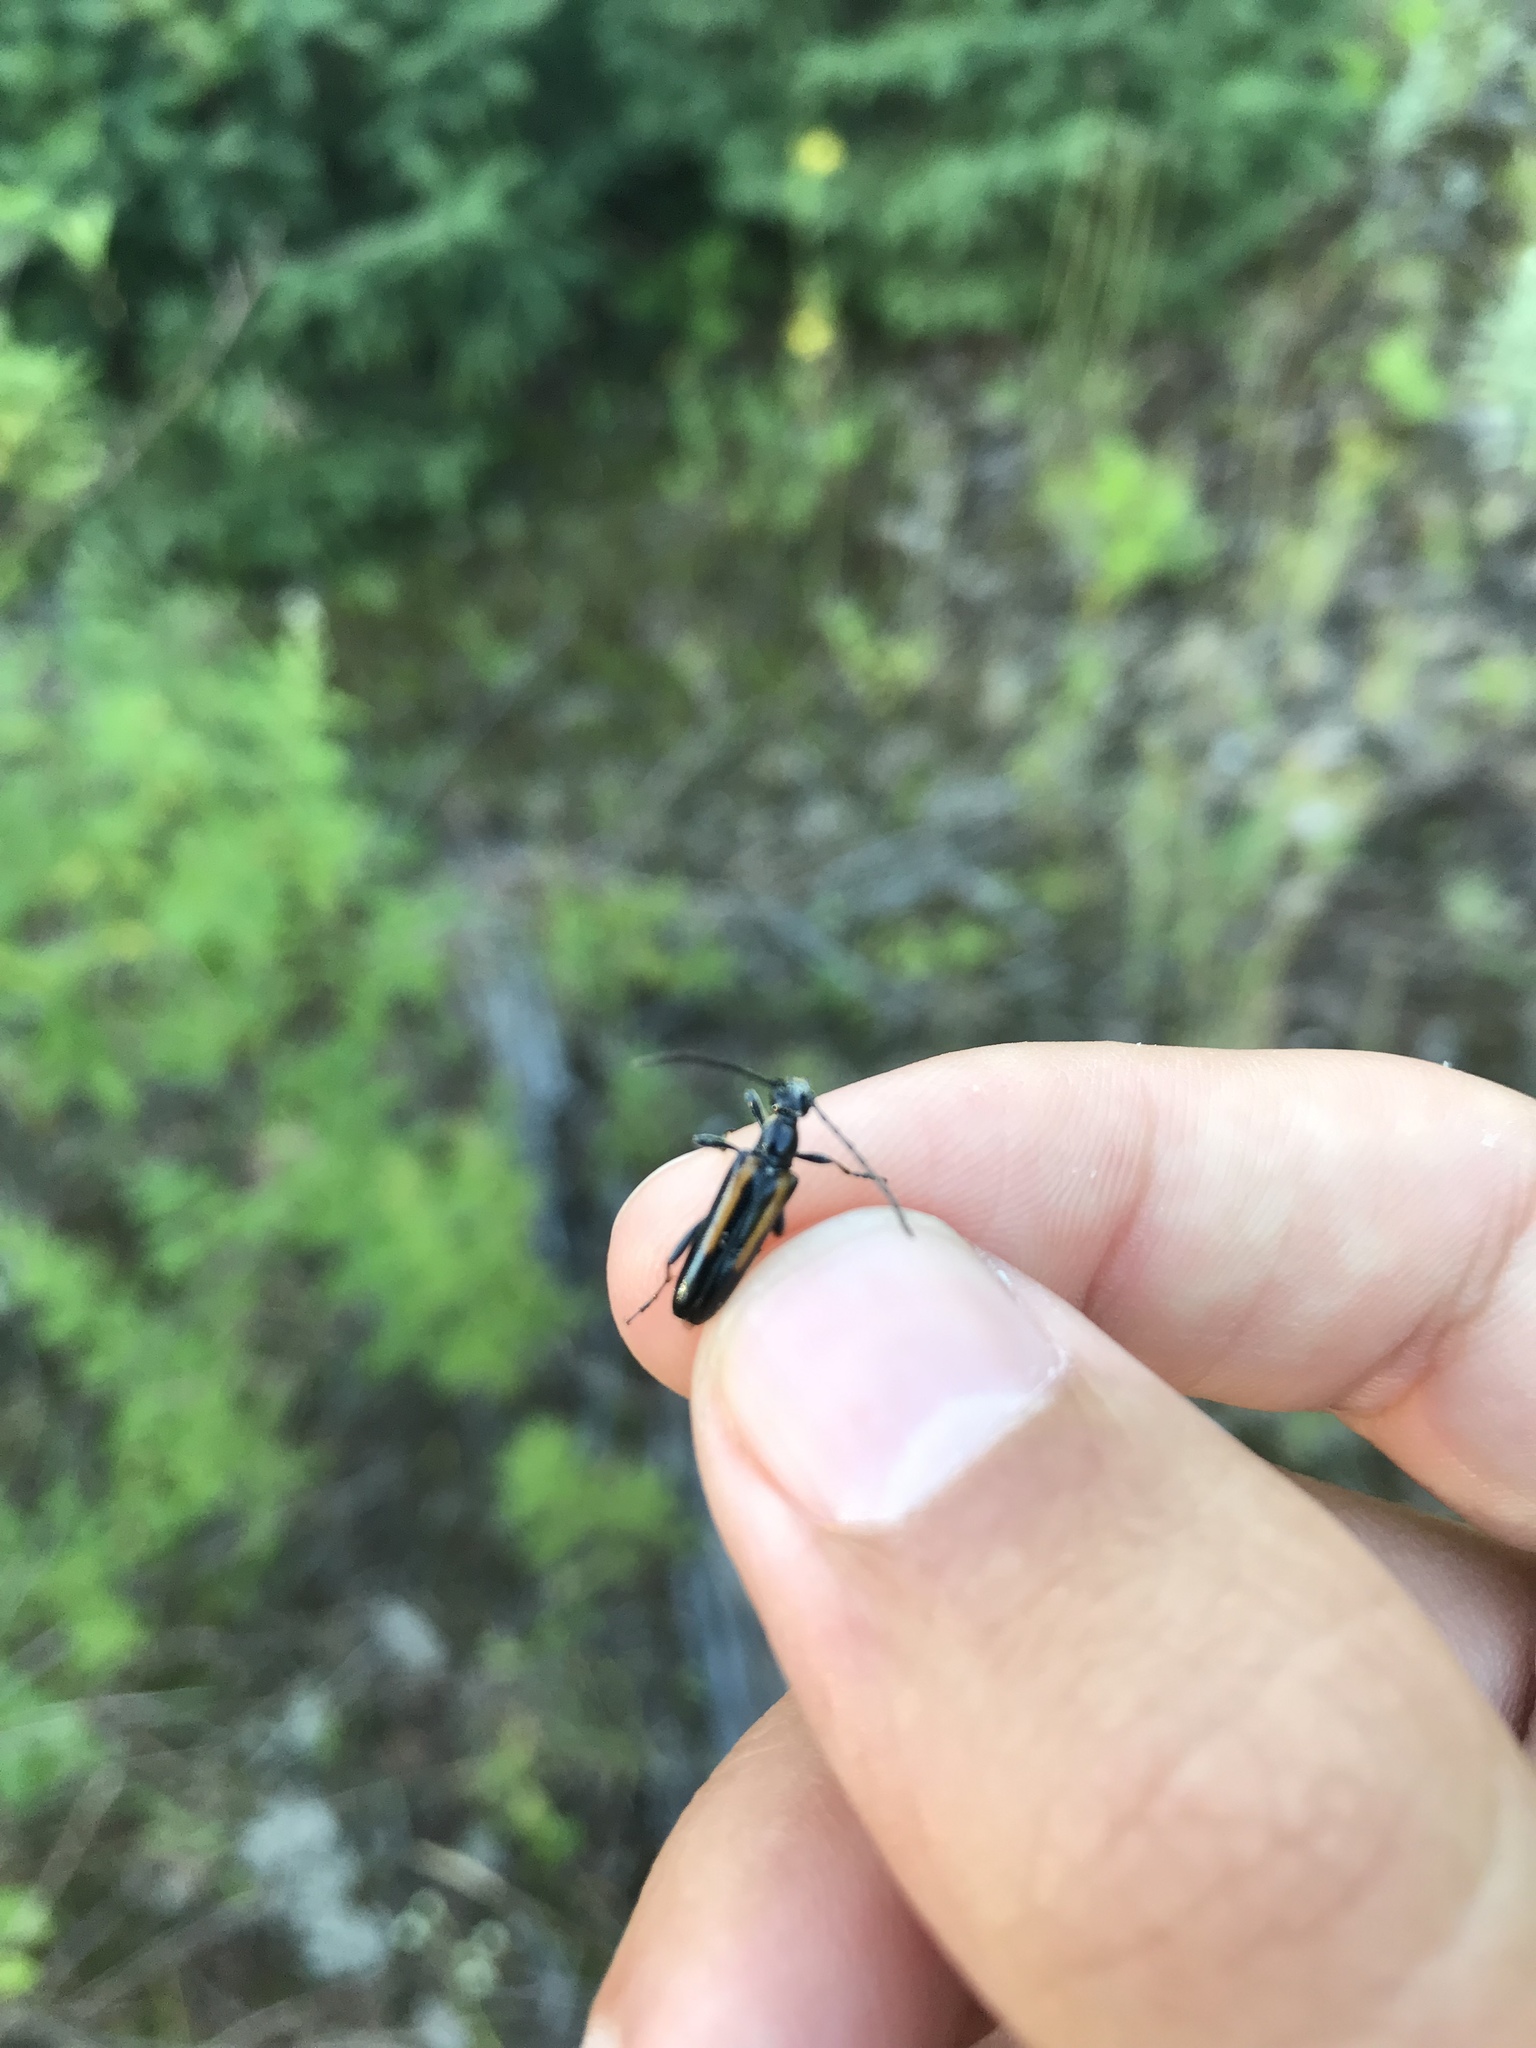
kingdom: Animalia
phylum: Arthropoda
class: Insecta
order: Coleoptera
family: Cerambycidae
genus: Strangalepta
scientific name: Strangalepta abbreviata
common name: Strangalepta flower longhorn beetle
